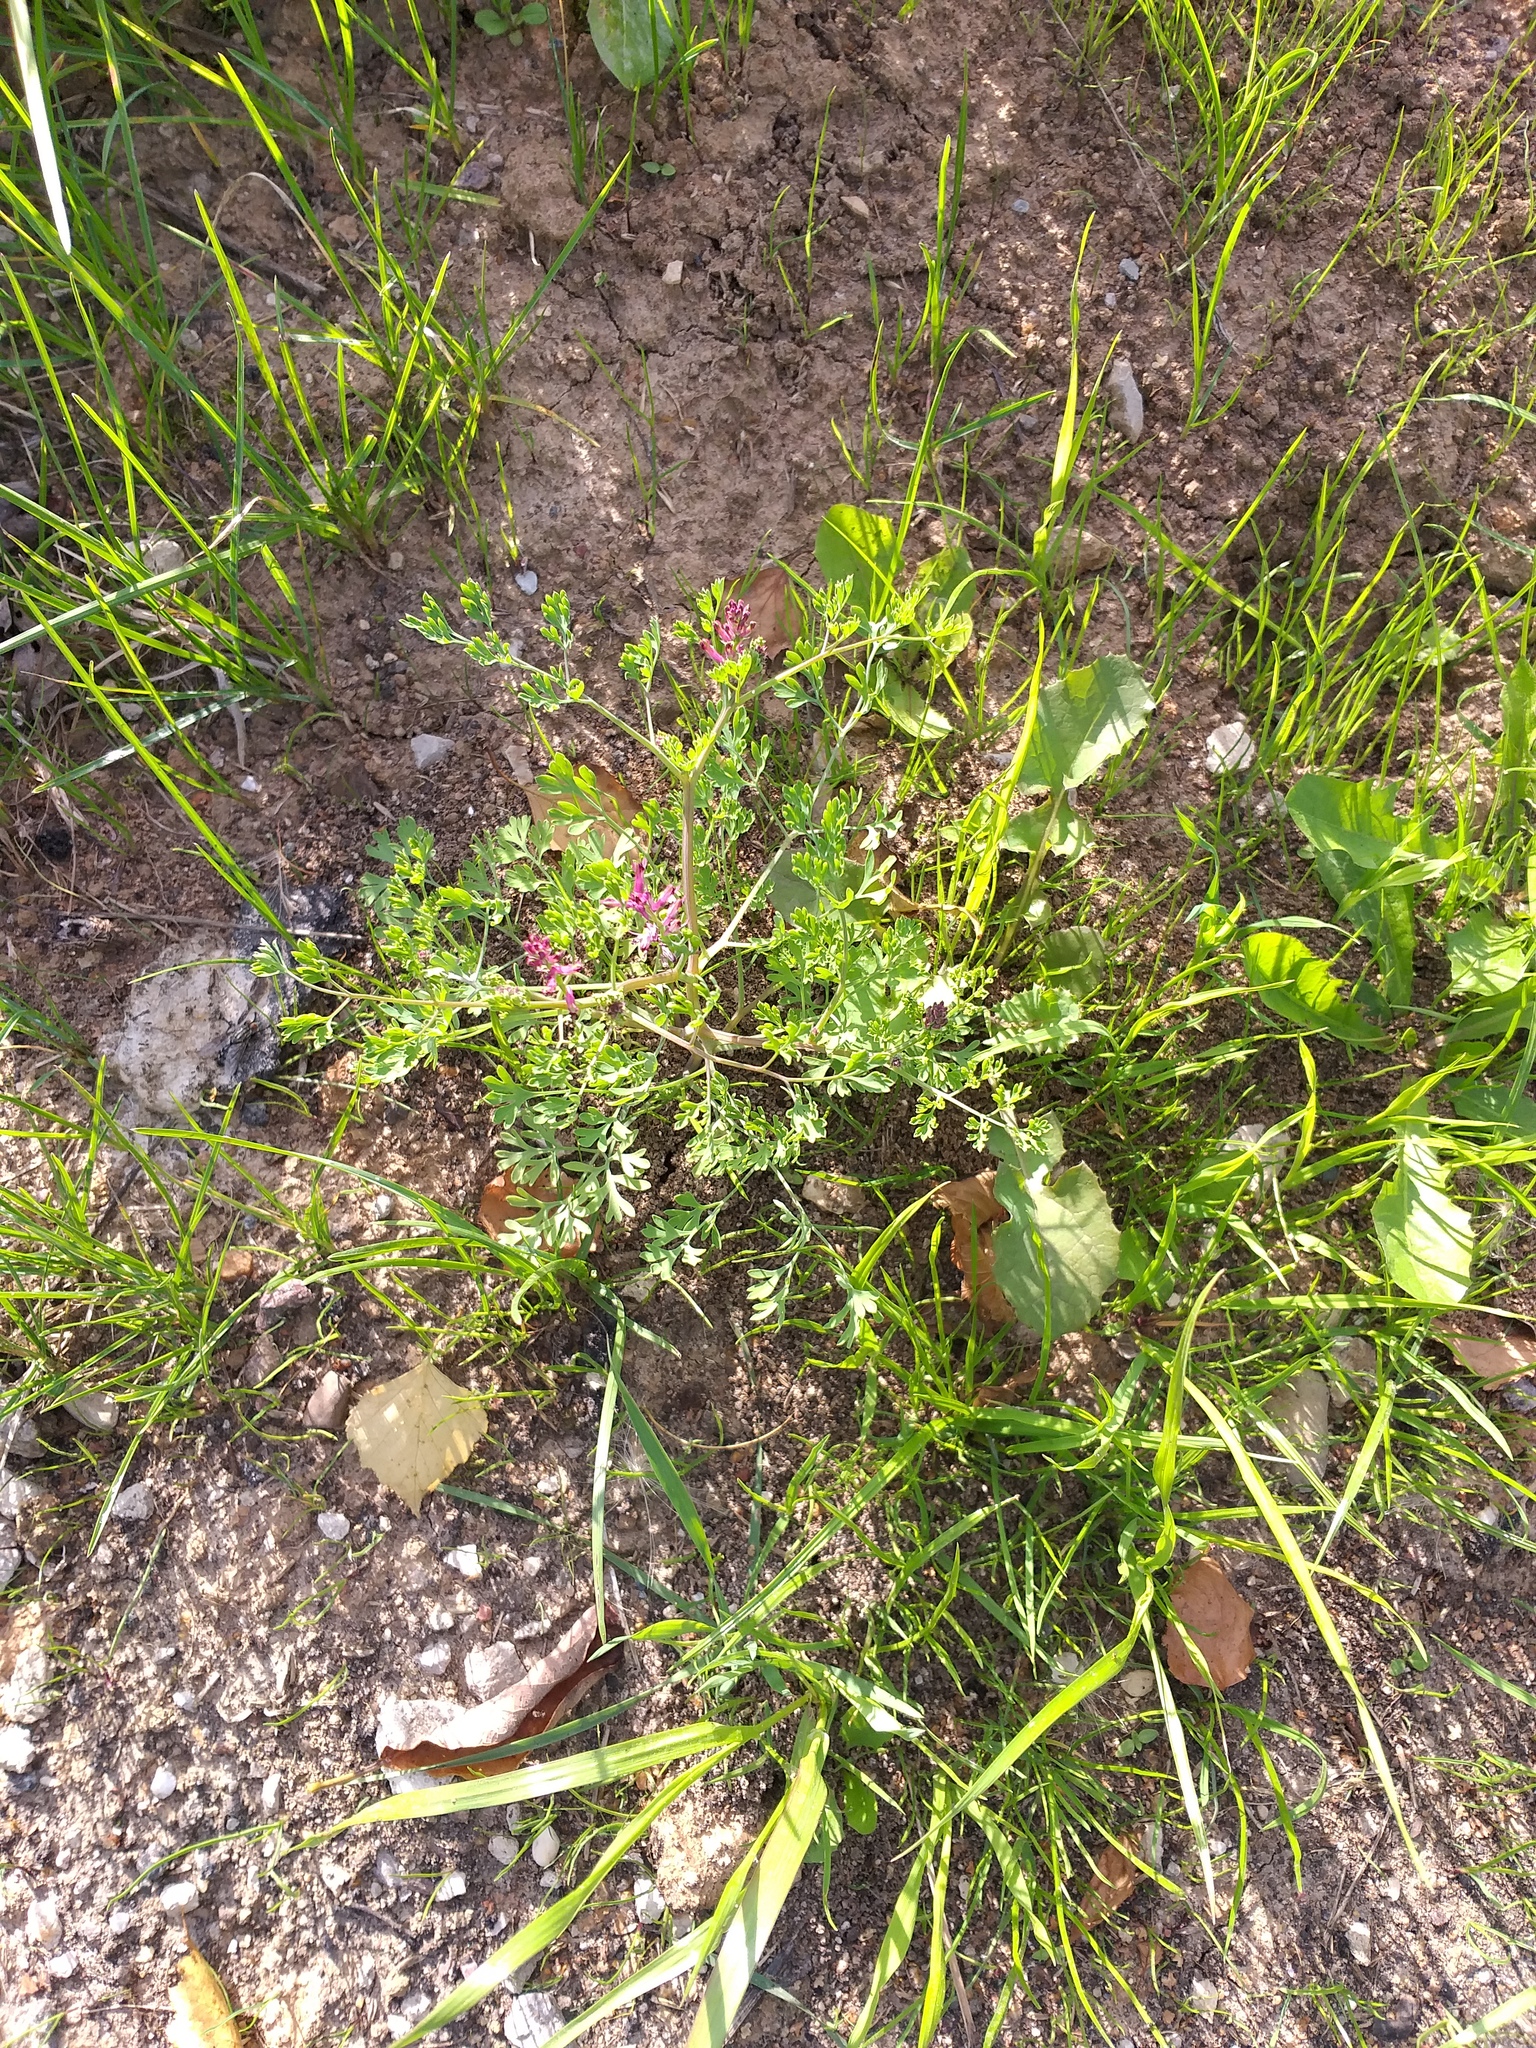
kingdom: Plantae
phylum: Tracheophyta
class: Magnoliopsida
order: Ranunculales
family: Papaveraceae
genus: Fumaria
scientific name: Fumaria officinalis
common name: Common fumitory
